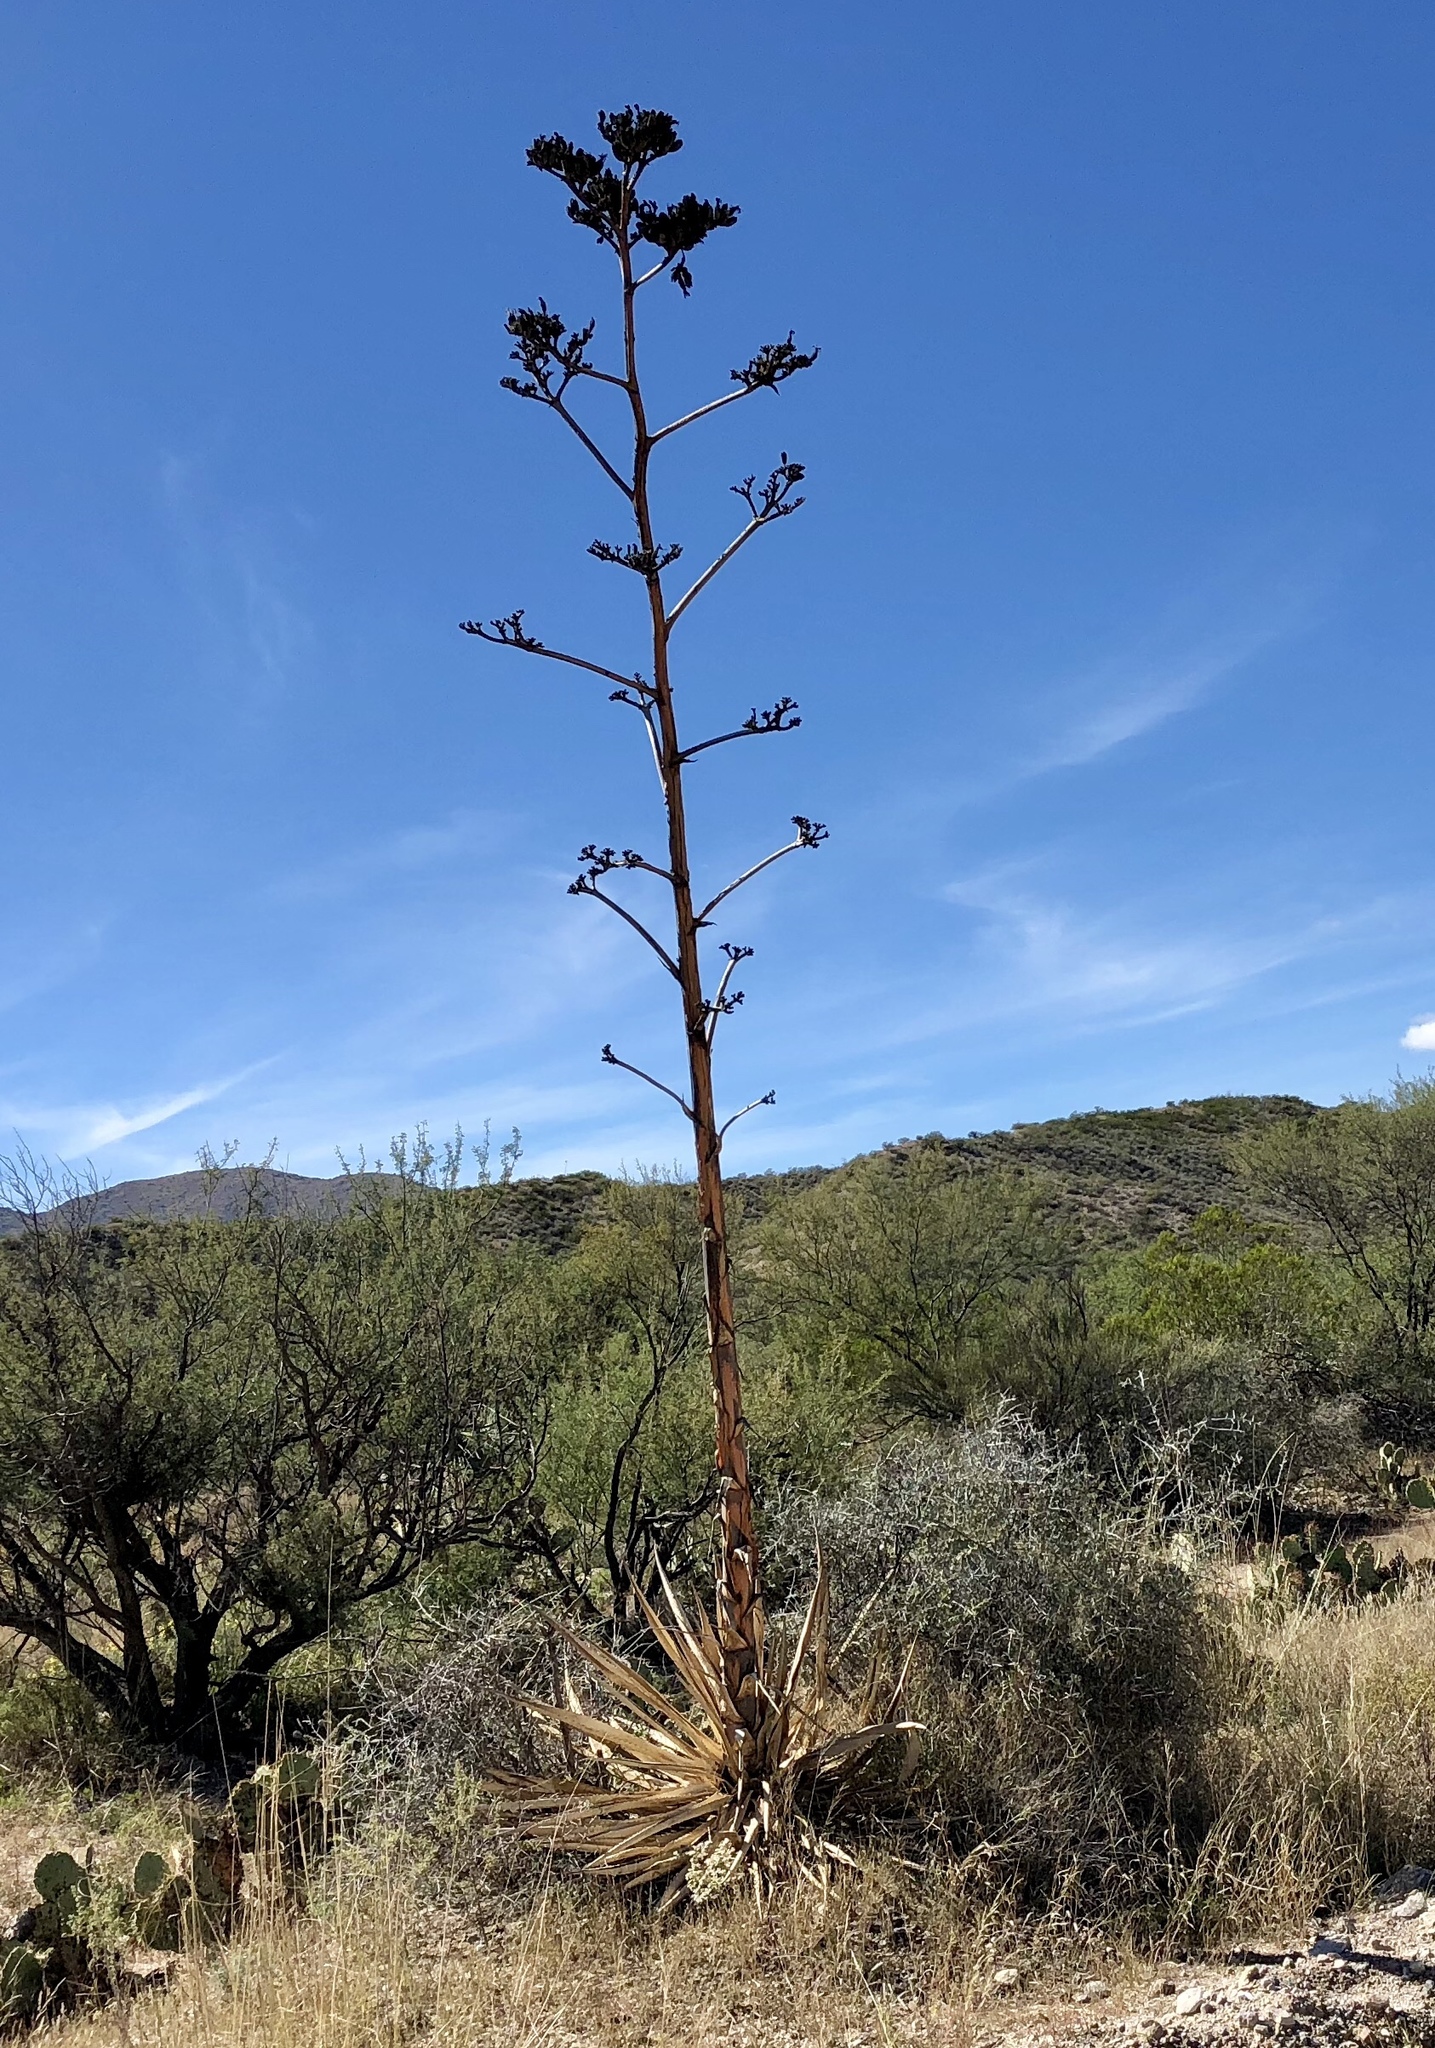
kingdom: Plantae
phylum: Tracheophyta
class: Liliopsida
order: Asparagales
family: Asparagaceae
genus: Agave
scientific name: Agave palmeri
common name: Palmer agave
